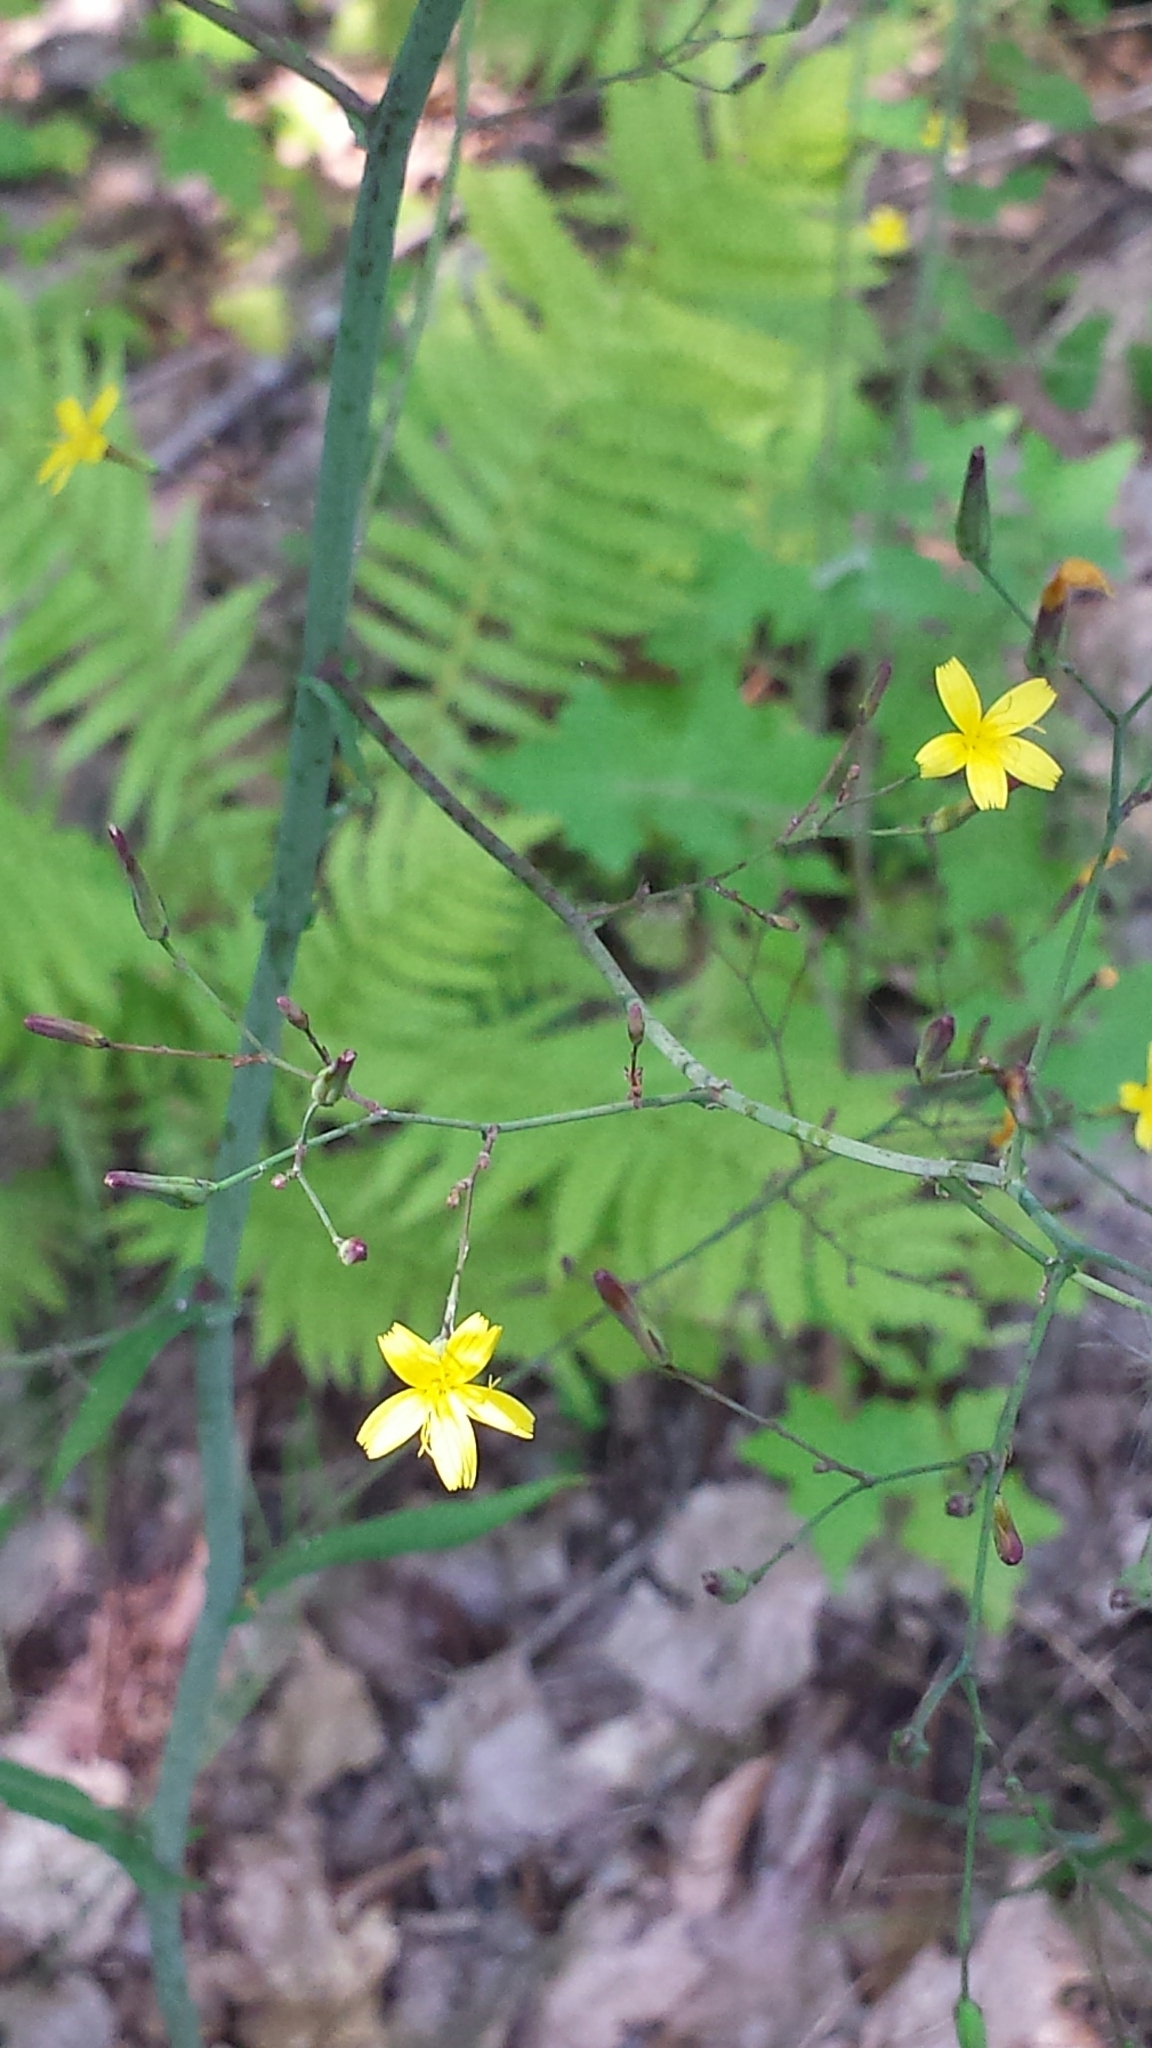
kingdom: Plantae
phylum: Tracheophyta
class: Magnoliopsida
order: Asterales
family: Asteraceae
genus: Mycelis
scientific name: Mycelis muralis
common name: Wall lettuce
